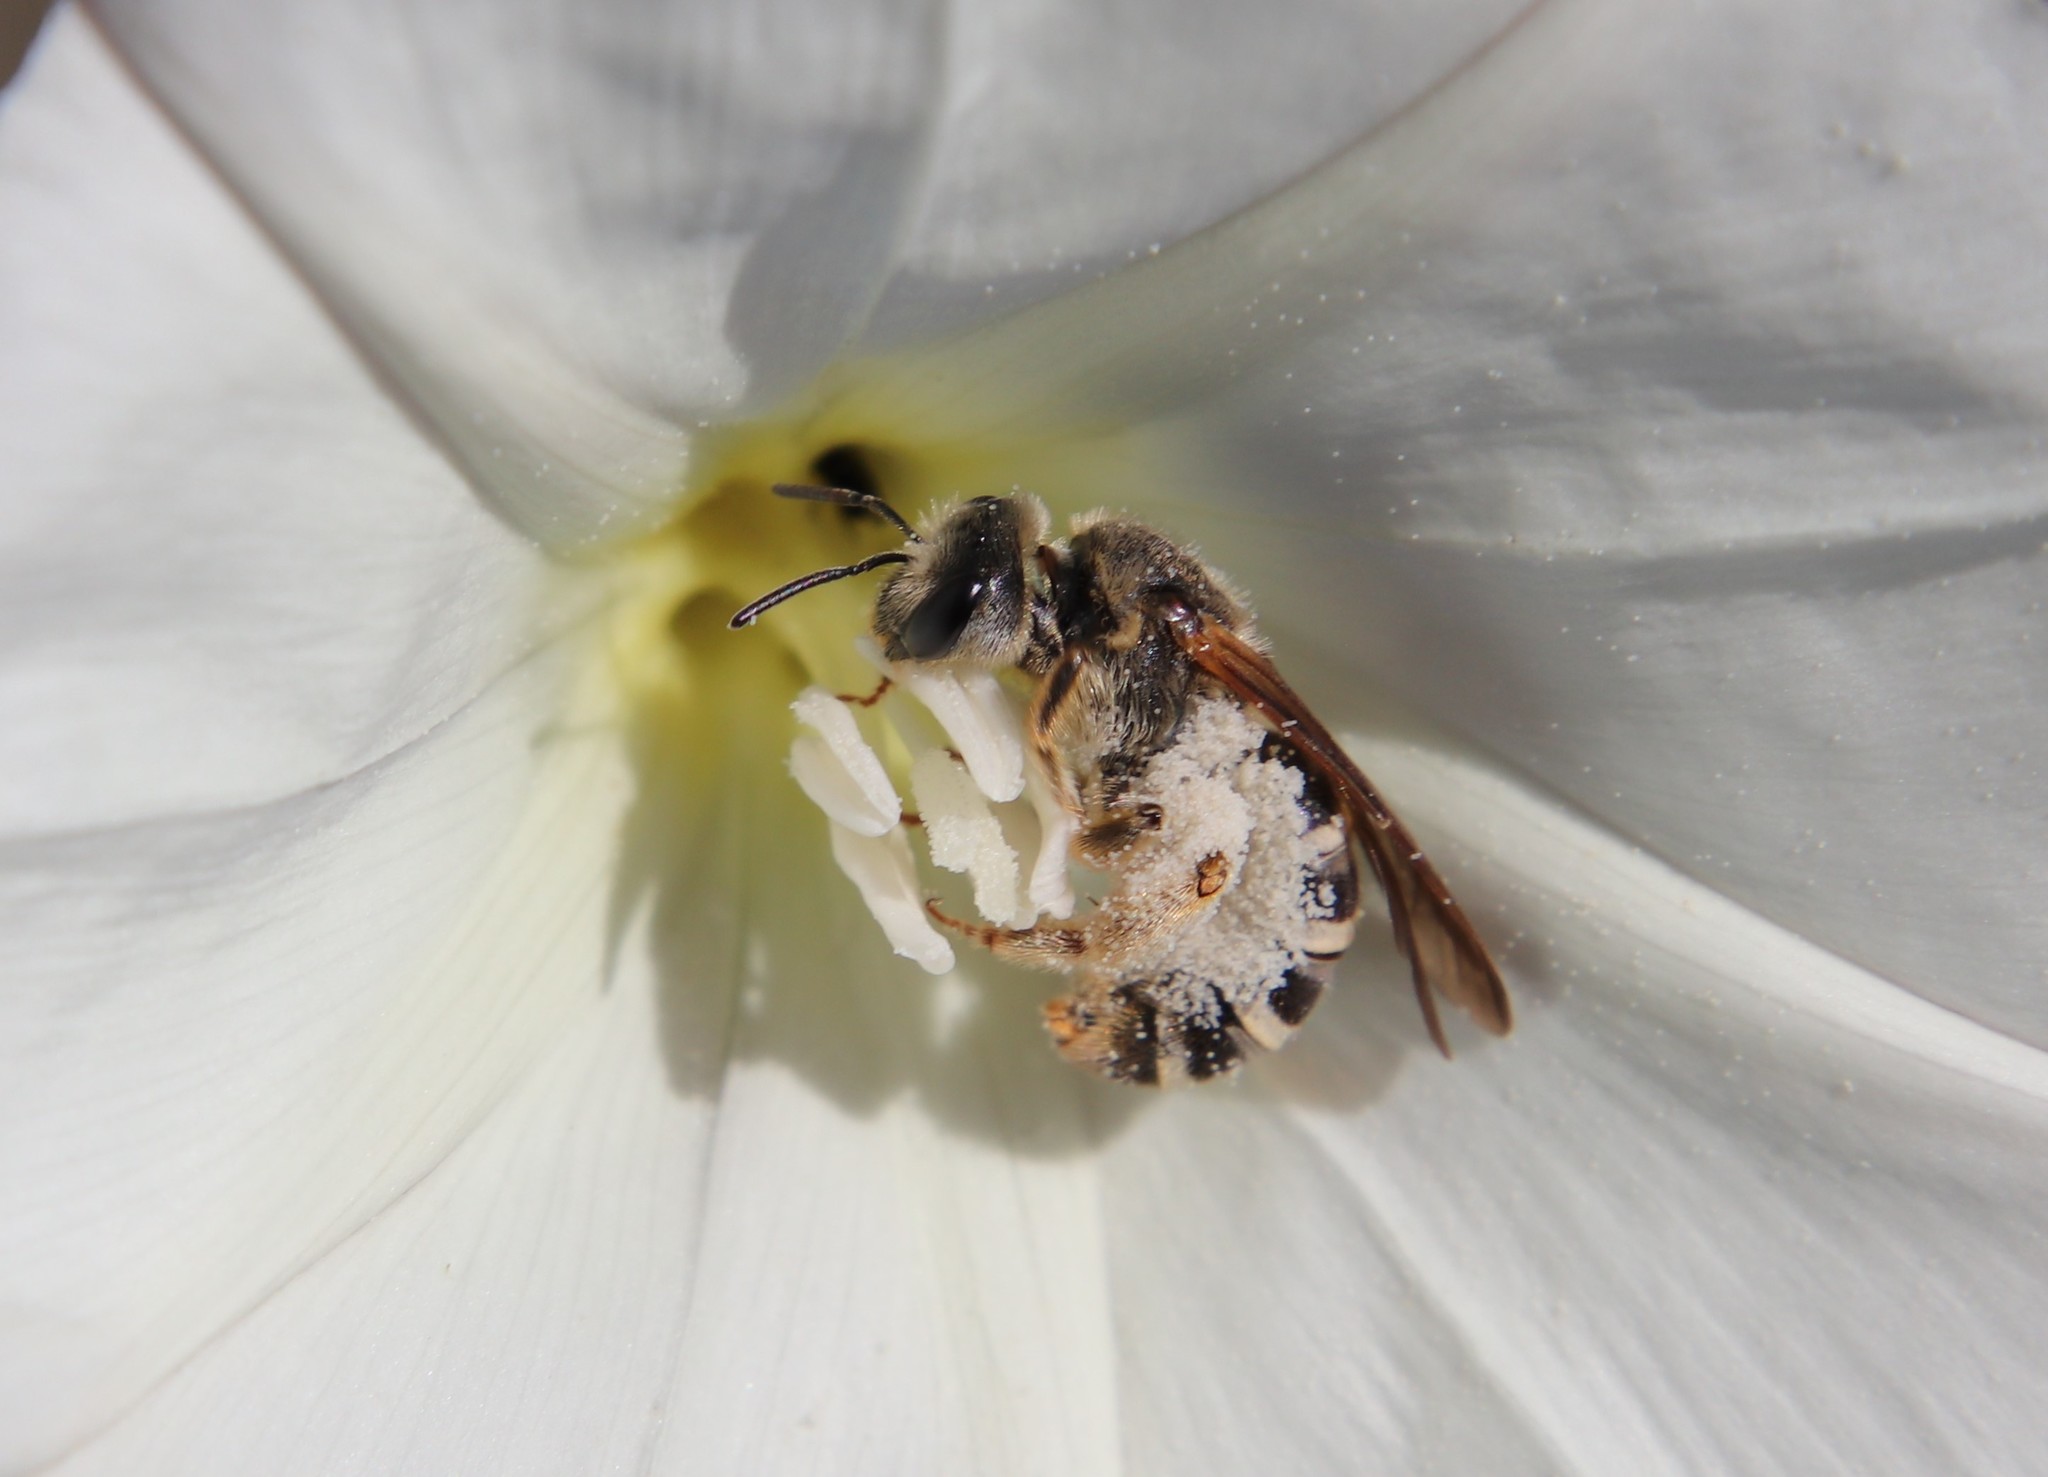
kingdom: Animalia
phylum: Arthropoda
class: Insecta
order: Hymenoptera
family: Halictidae
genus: Halictus
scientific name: Halictus farinosus
